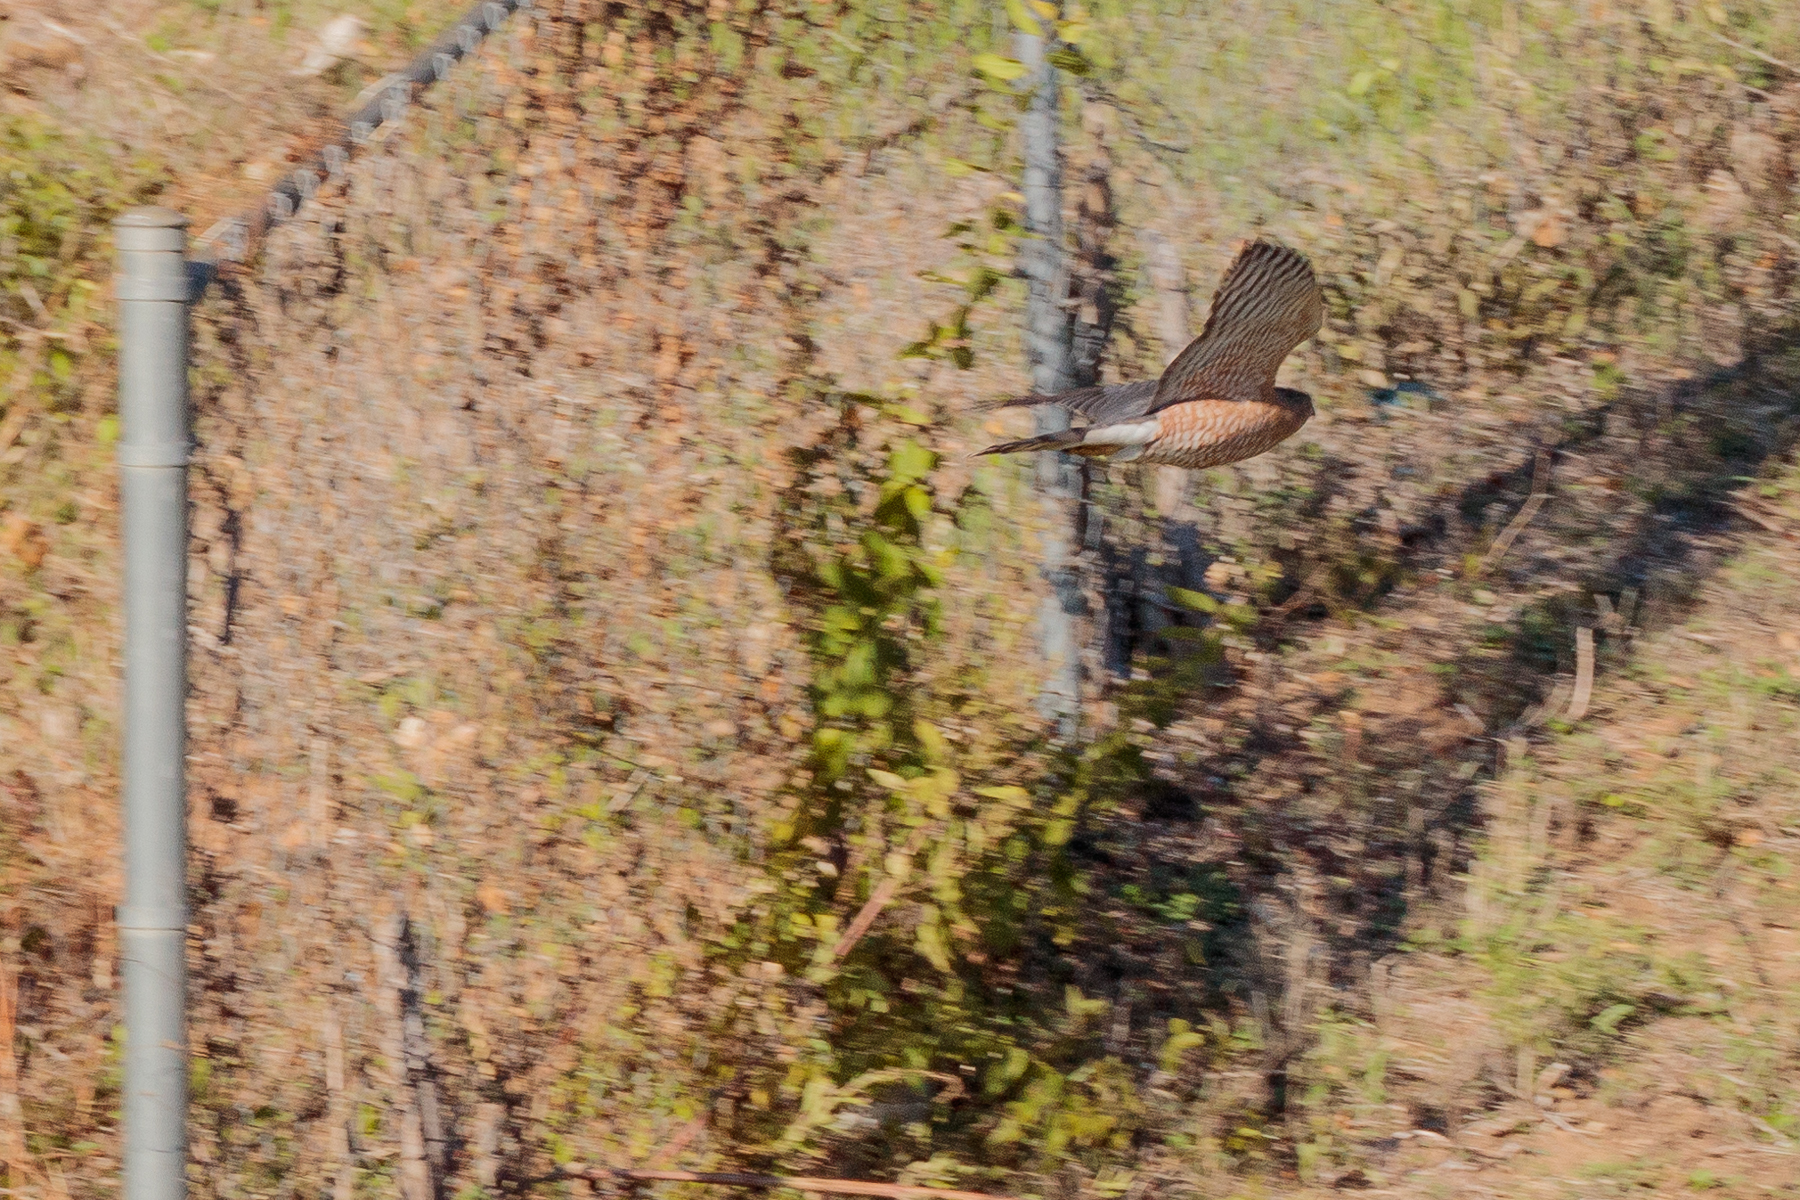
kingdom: Animalia
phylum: Chordata
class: Aves
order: Accipitriformes
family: Accipitridae
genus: Accipiter
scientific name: Accipiter cooperii
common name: Cooper's hawk
